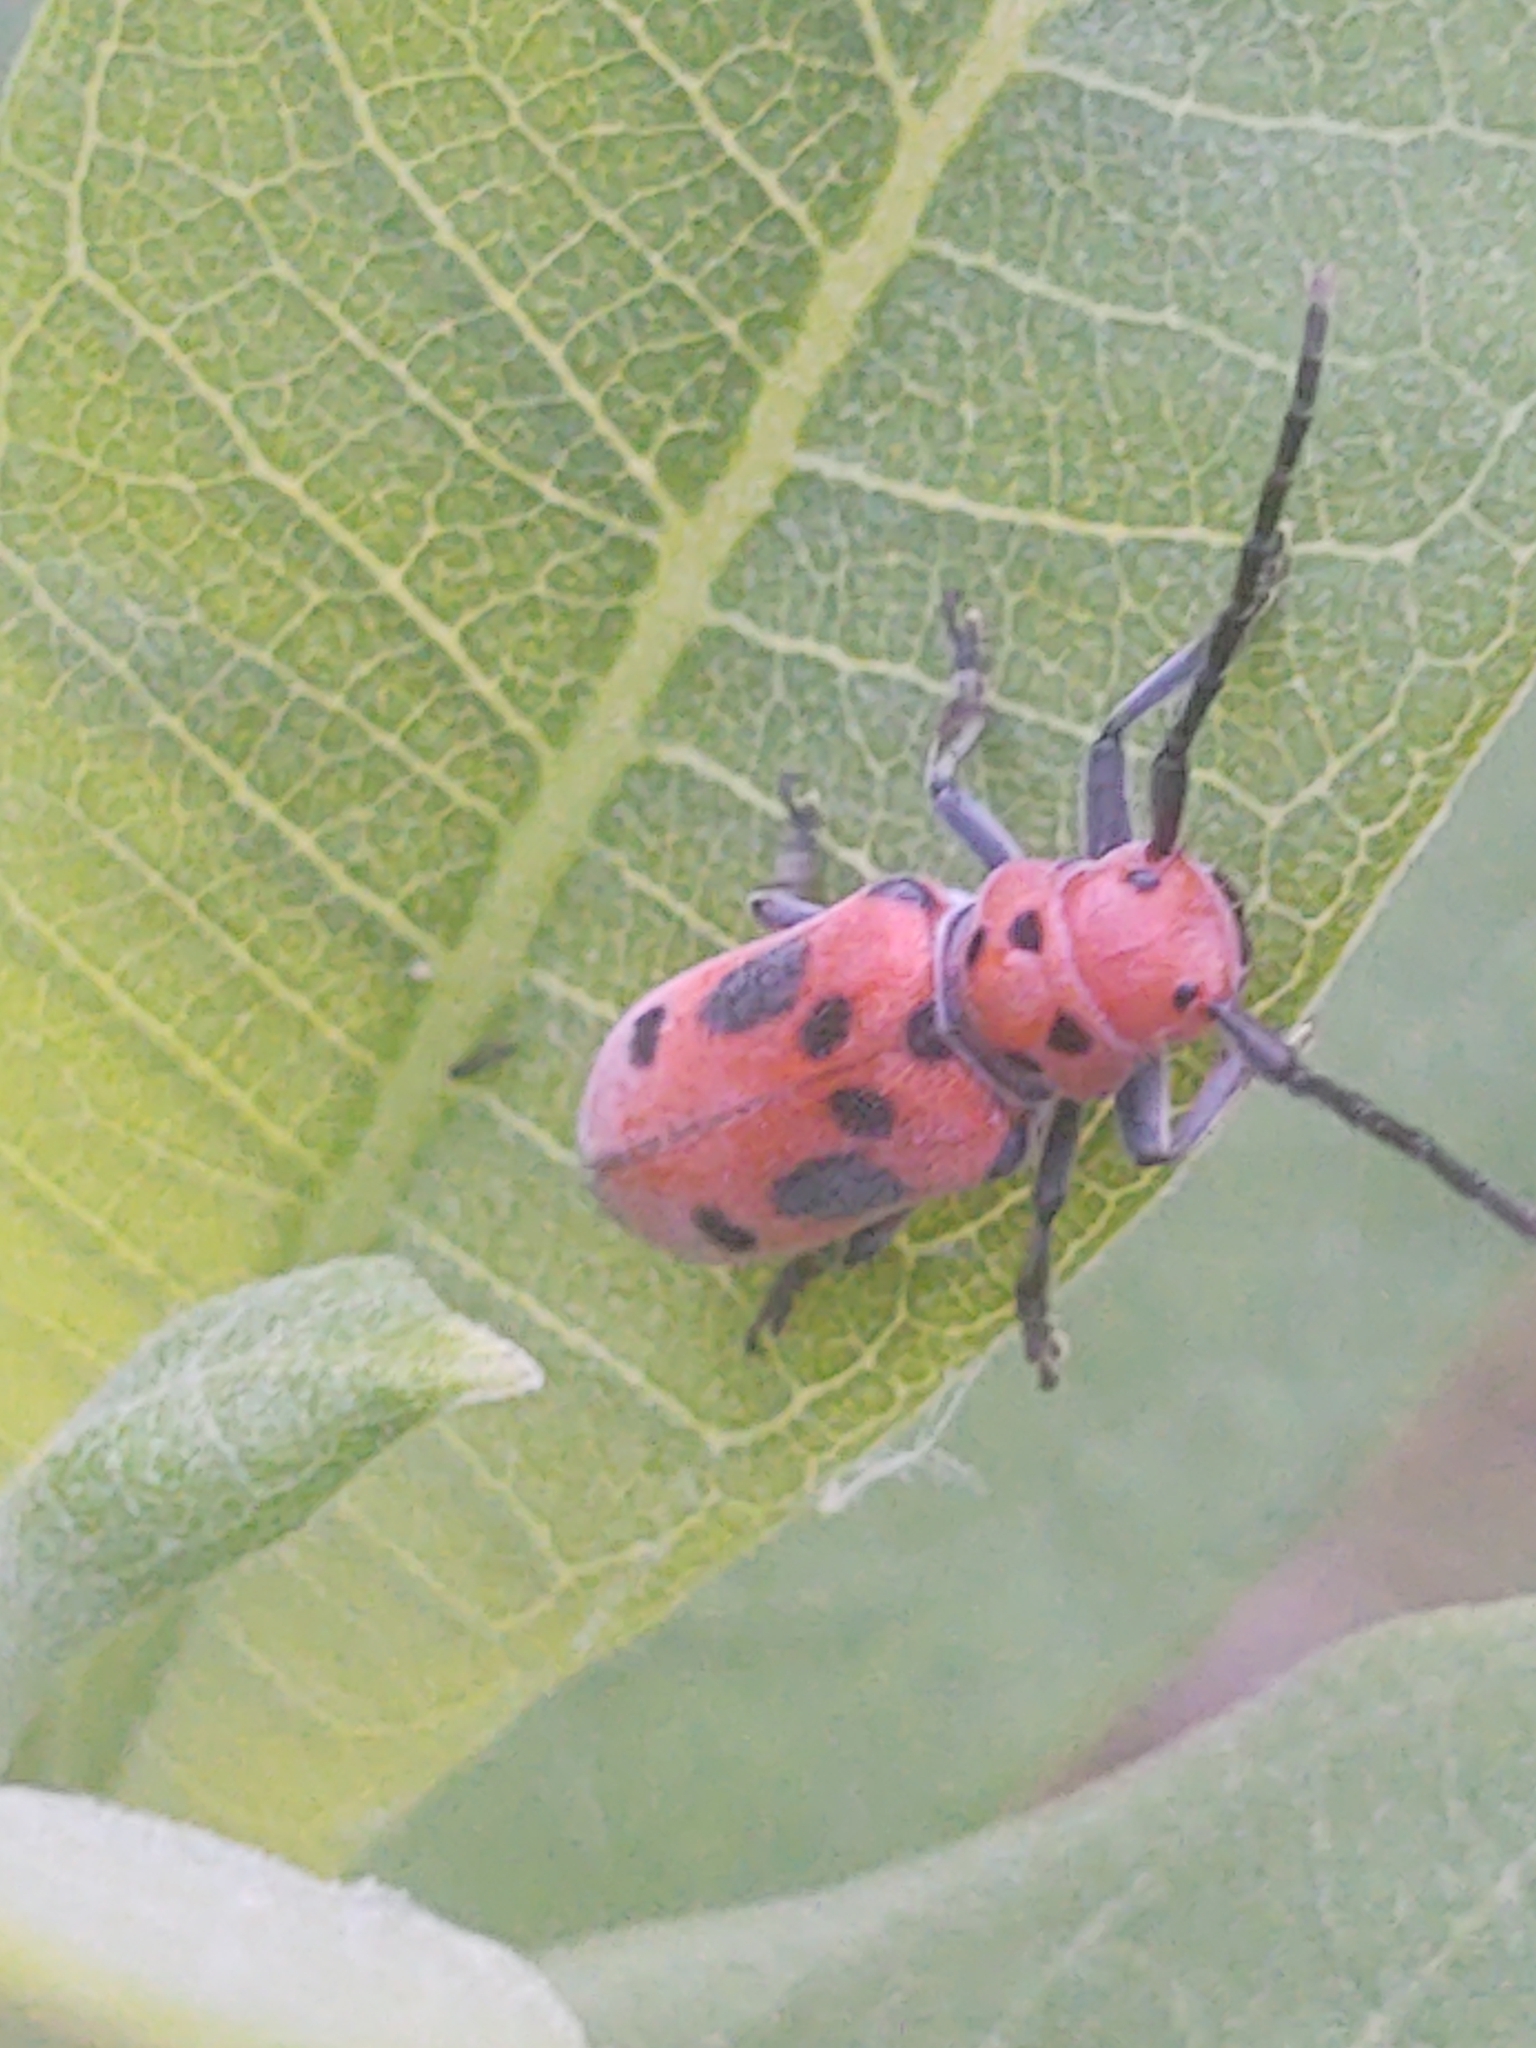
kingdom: Animalia
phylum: Arthropoda
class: Insecta
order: Coleoptera
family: Cerambycidae
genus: Tetraopes
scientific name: Tetraopes tetrophthalmus
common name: Red milkweed beetle
